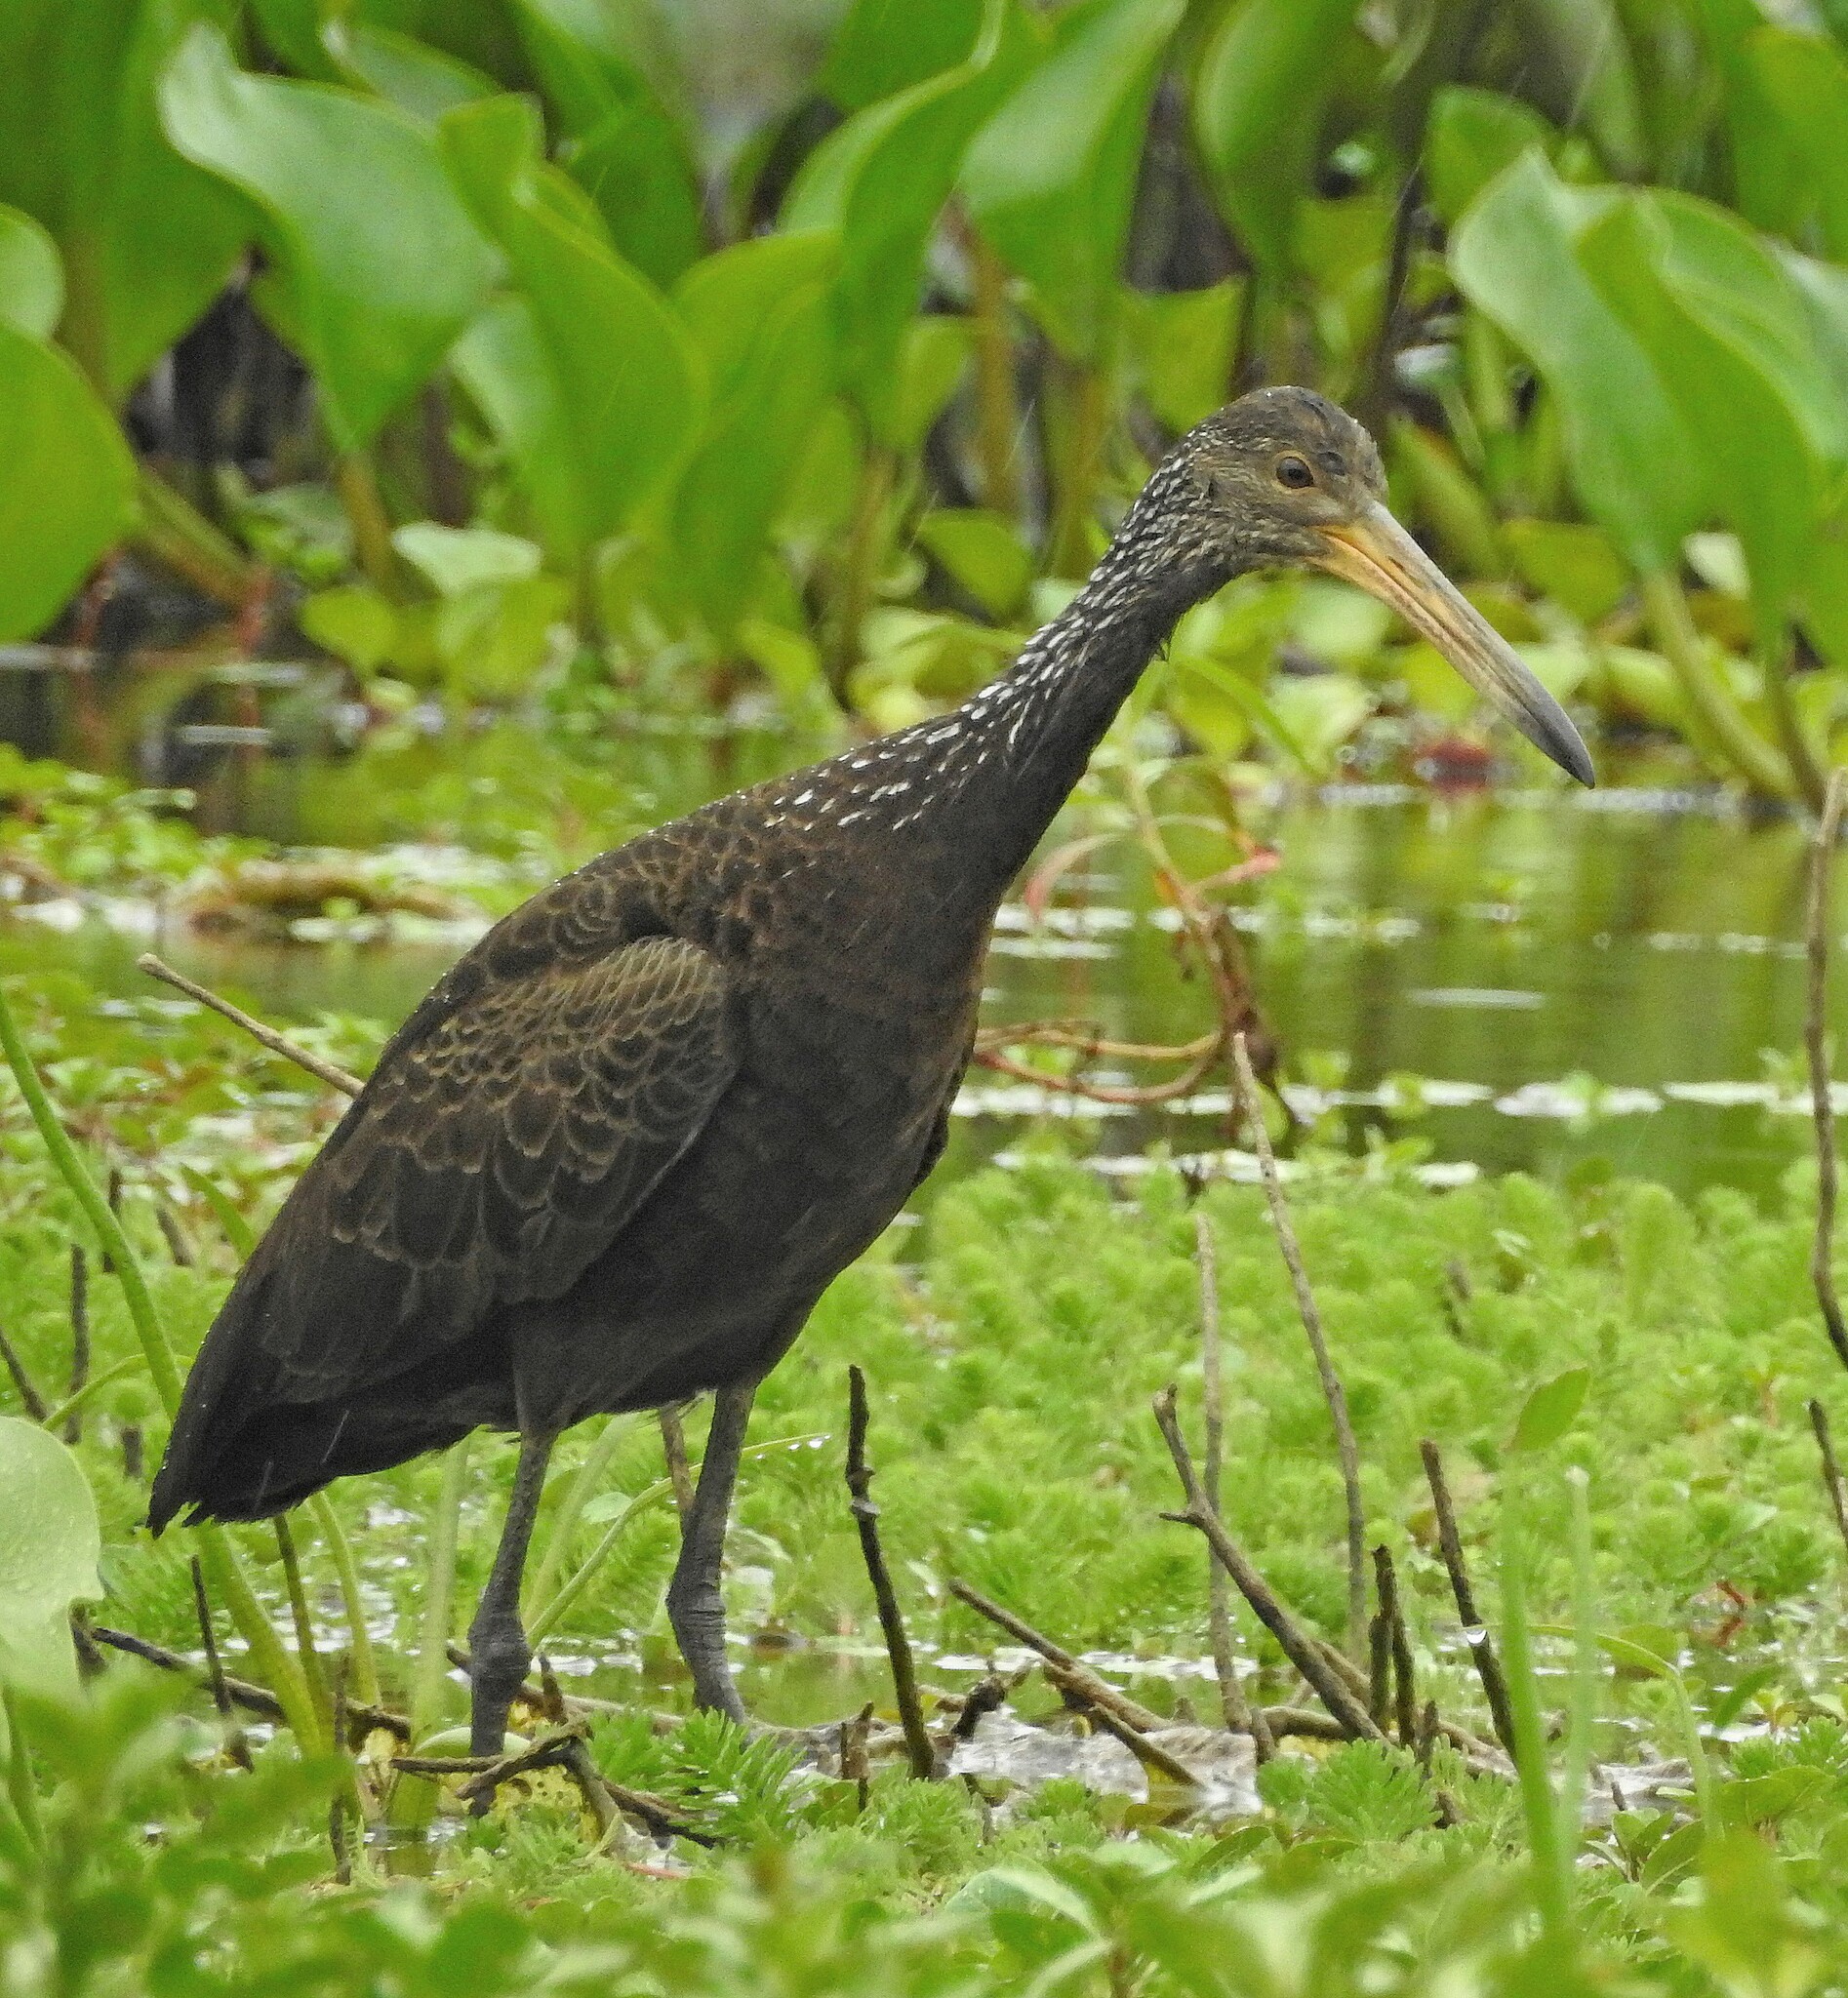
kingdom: Animalia
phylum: Chordata
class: Aves
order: Gruiformes
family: Aramidae
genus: Aramus
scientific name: Aramus guarauna
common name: Limpkin
